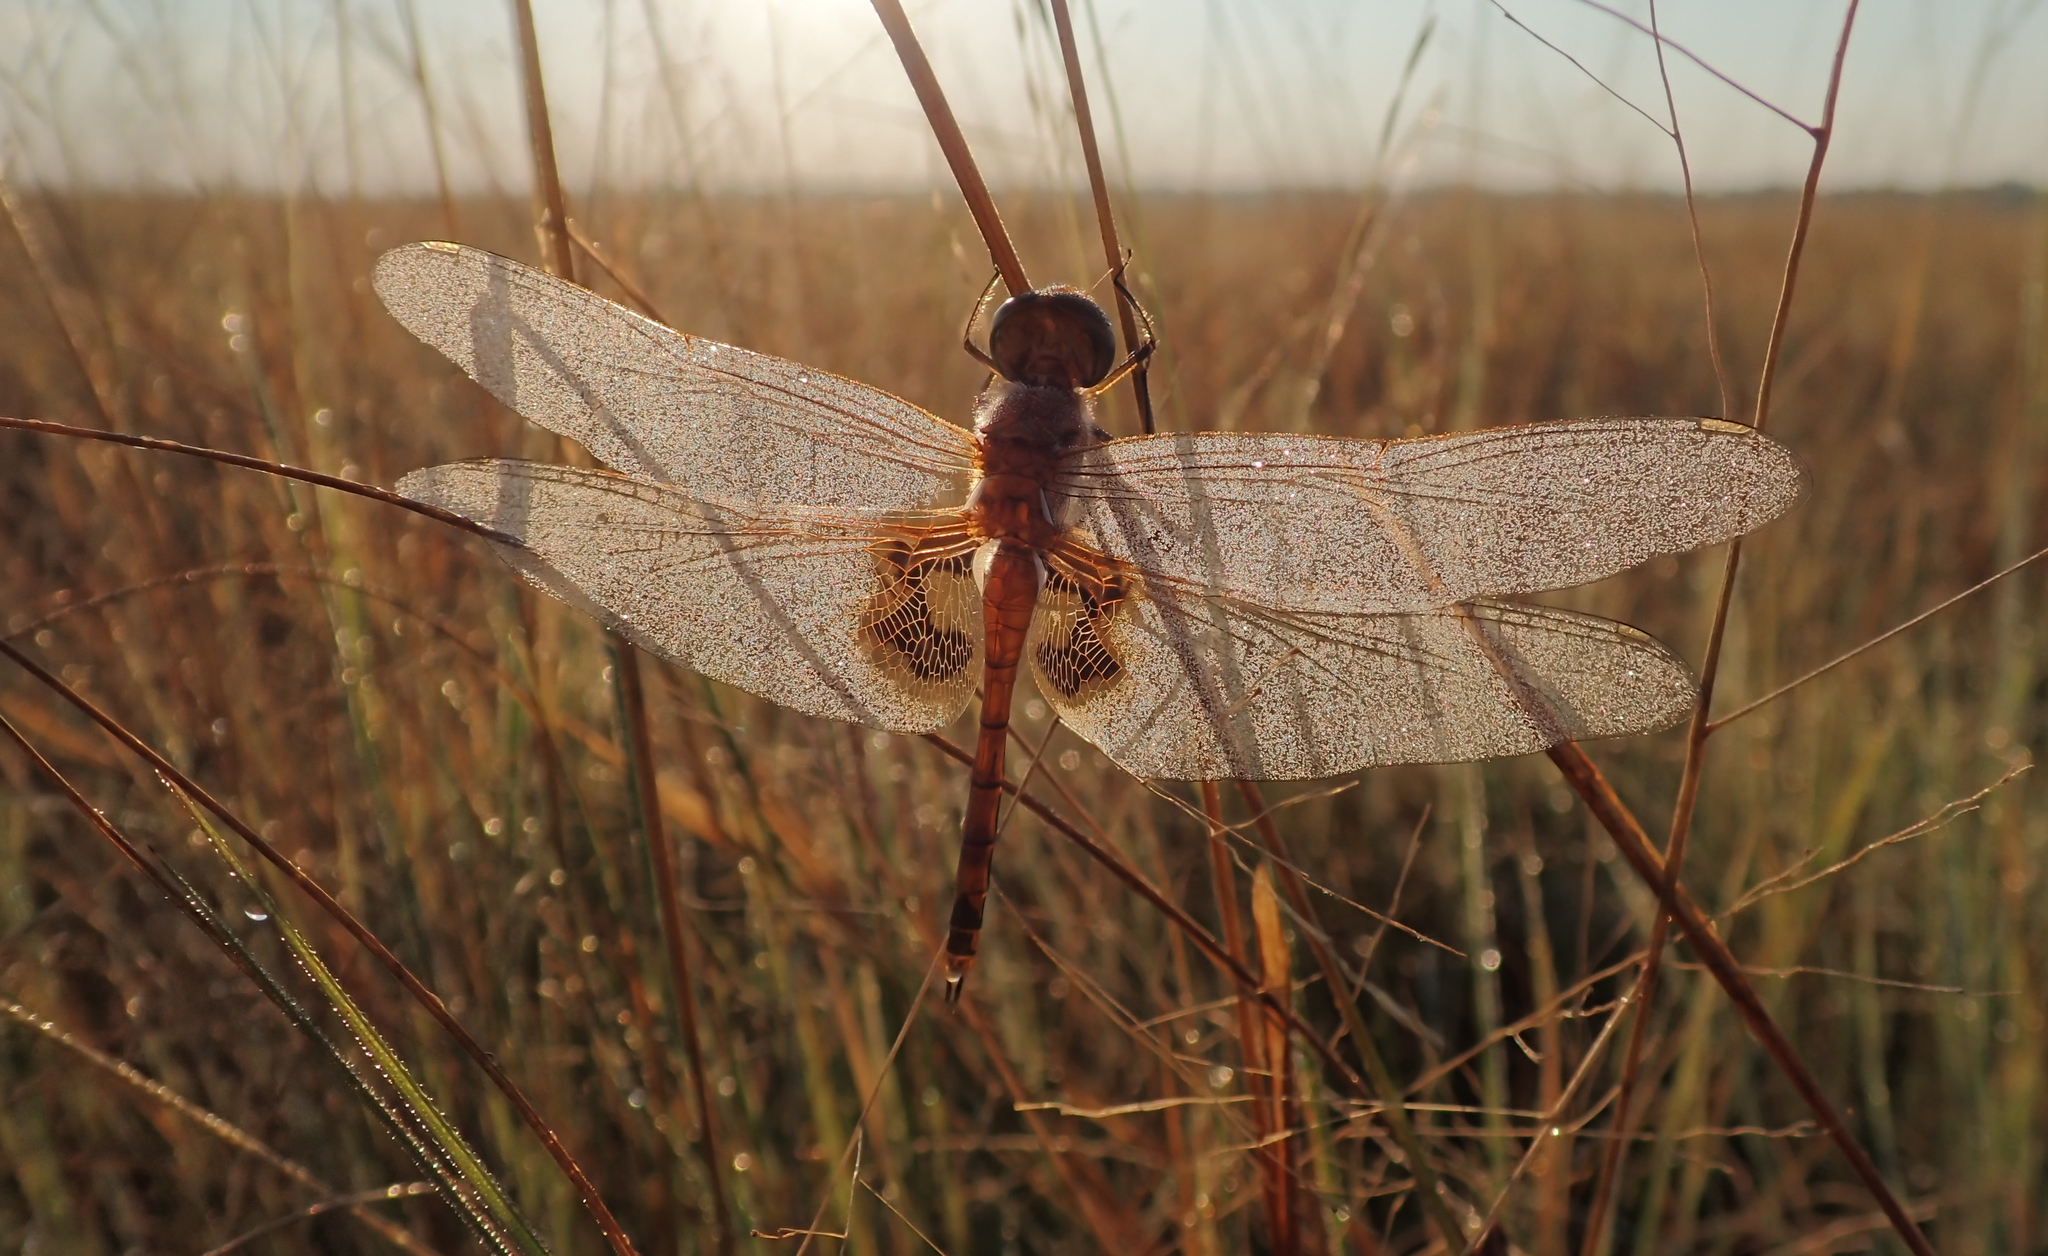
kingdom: Animalia
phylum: Arthropoda
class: Insecta
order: Odonata
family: Libellulidae
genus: Tramea
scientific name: Tramea basilaris
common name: Keyhole glider
